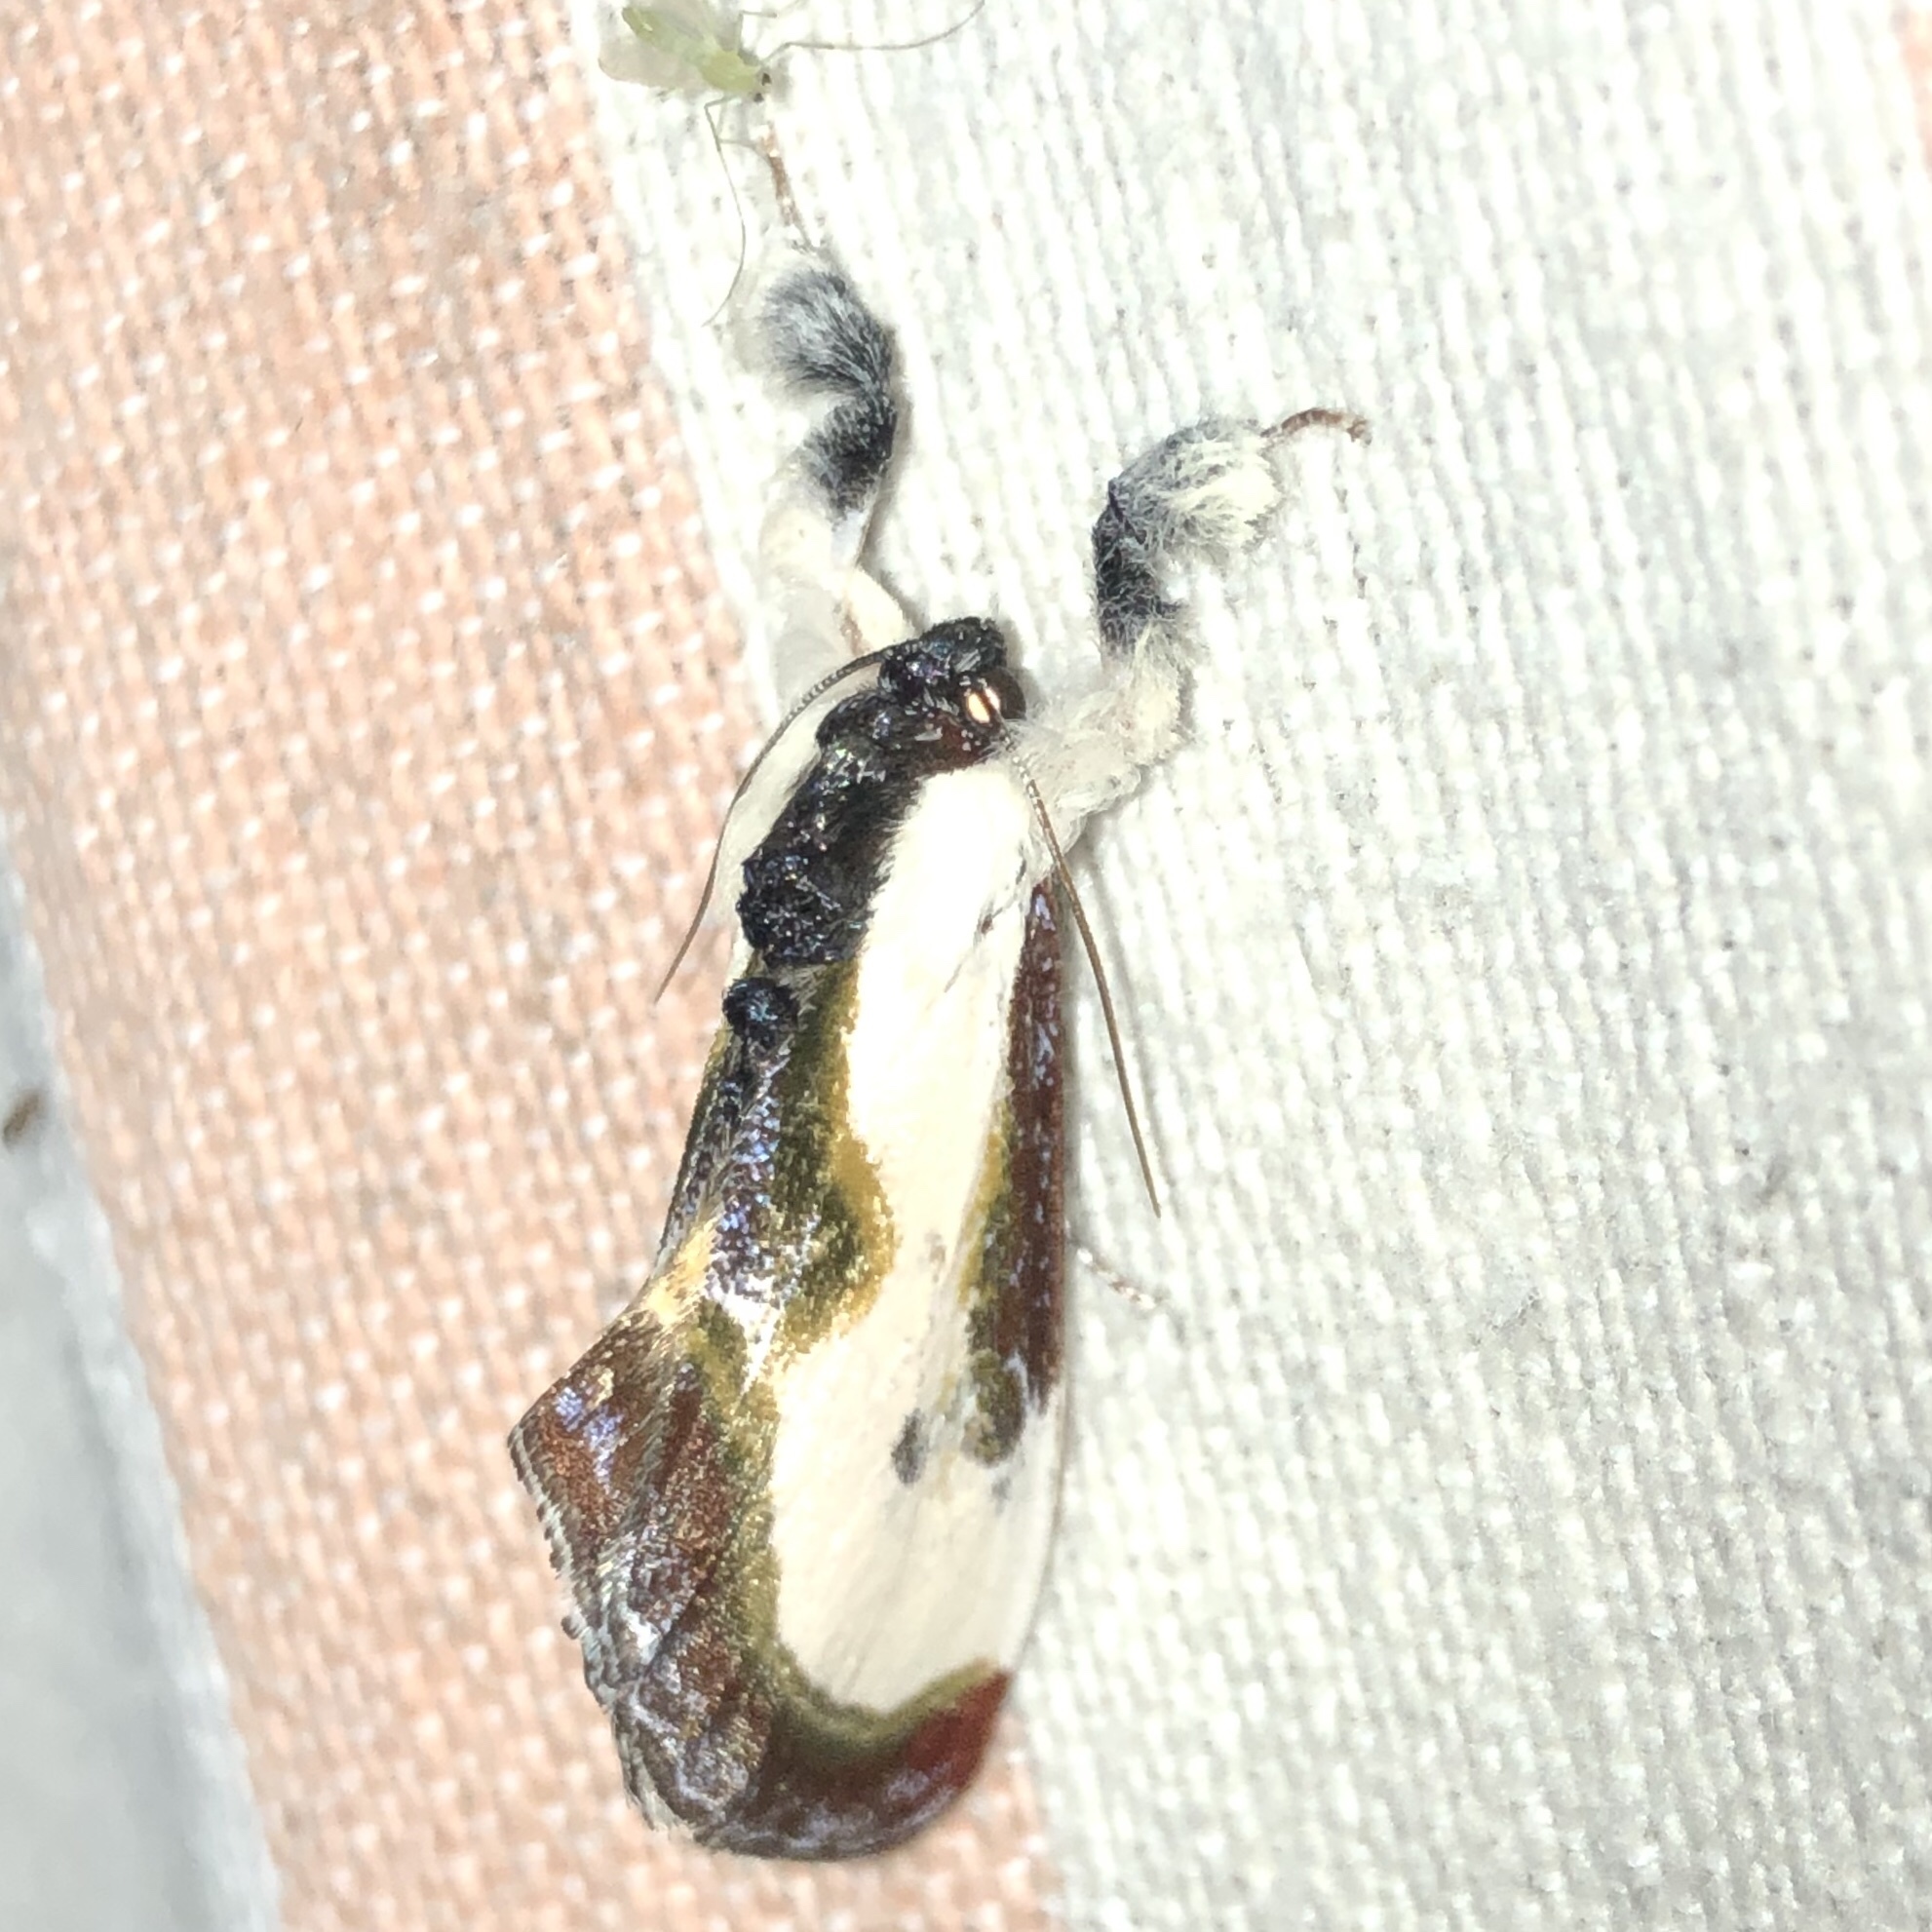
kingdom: Animalia
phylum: Arthropoda
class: Insecta
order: Lepidoptera
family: Noctuidae
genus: Eudryas
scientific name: Eudryas grata
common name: Beautiful wood-nymph
